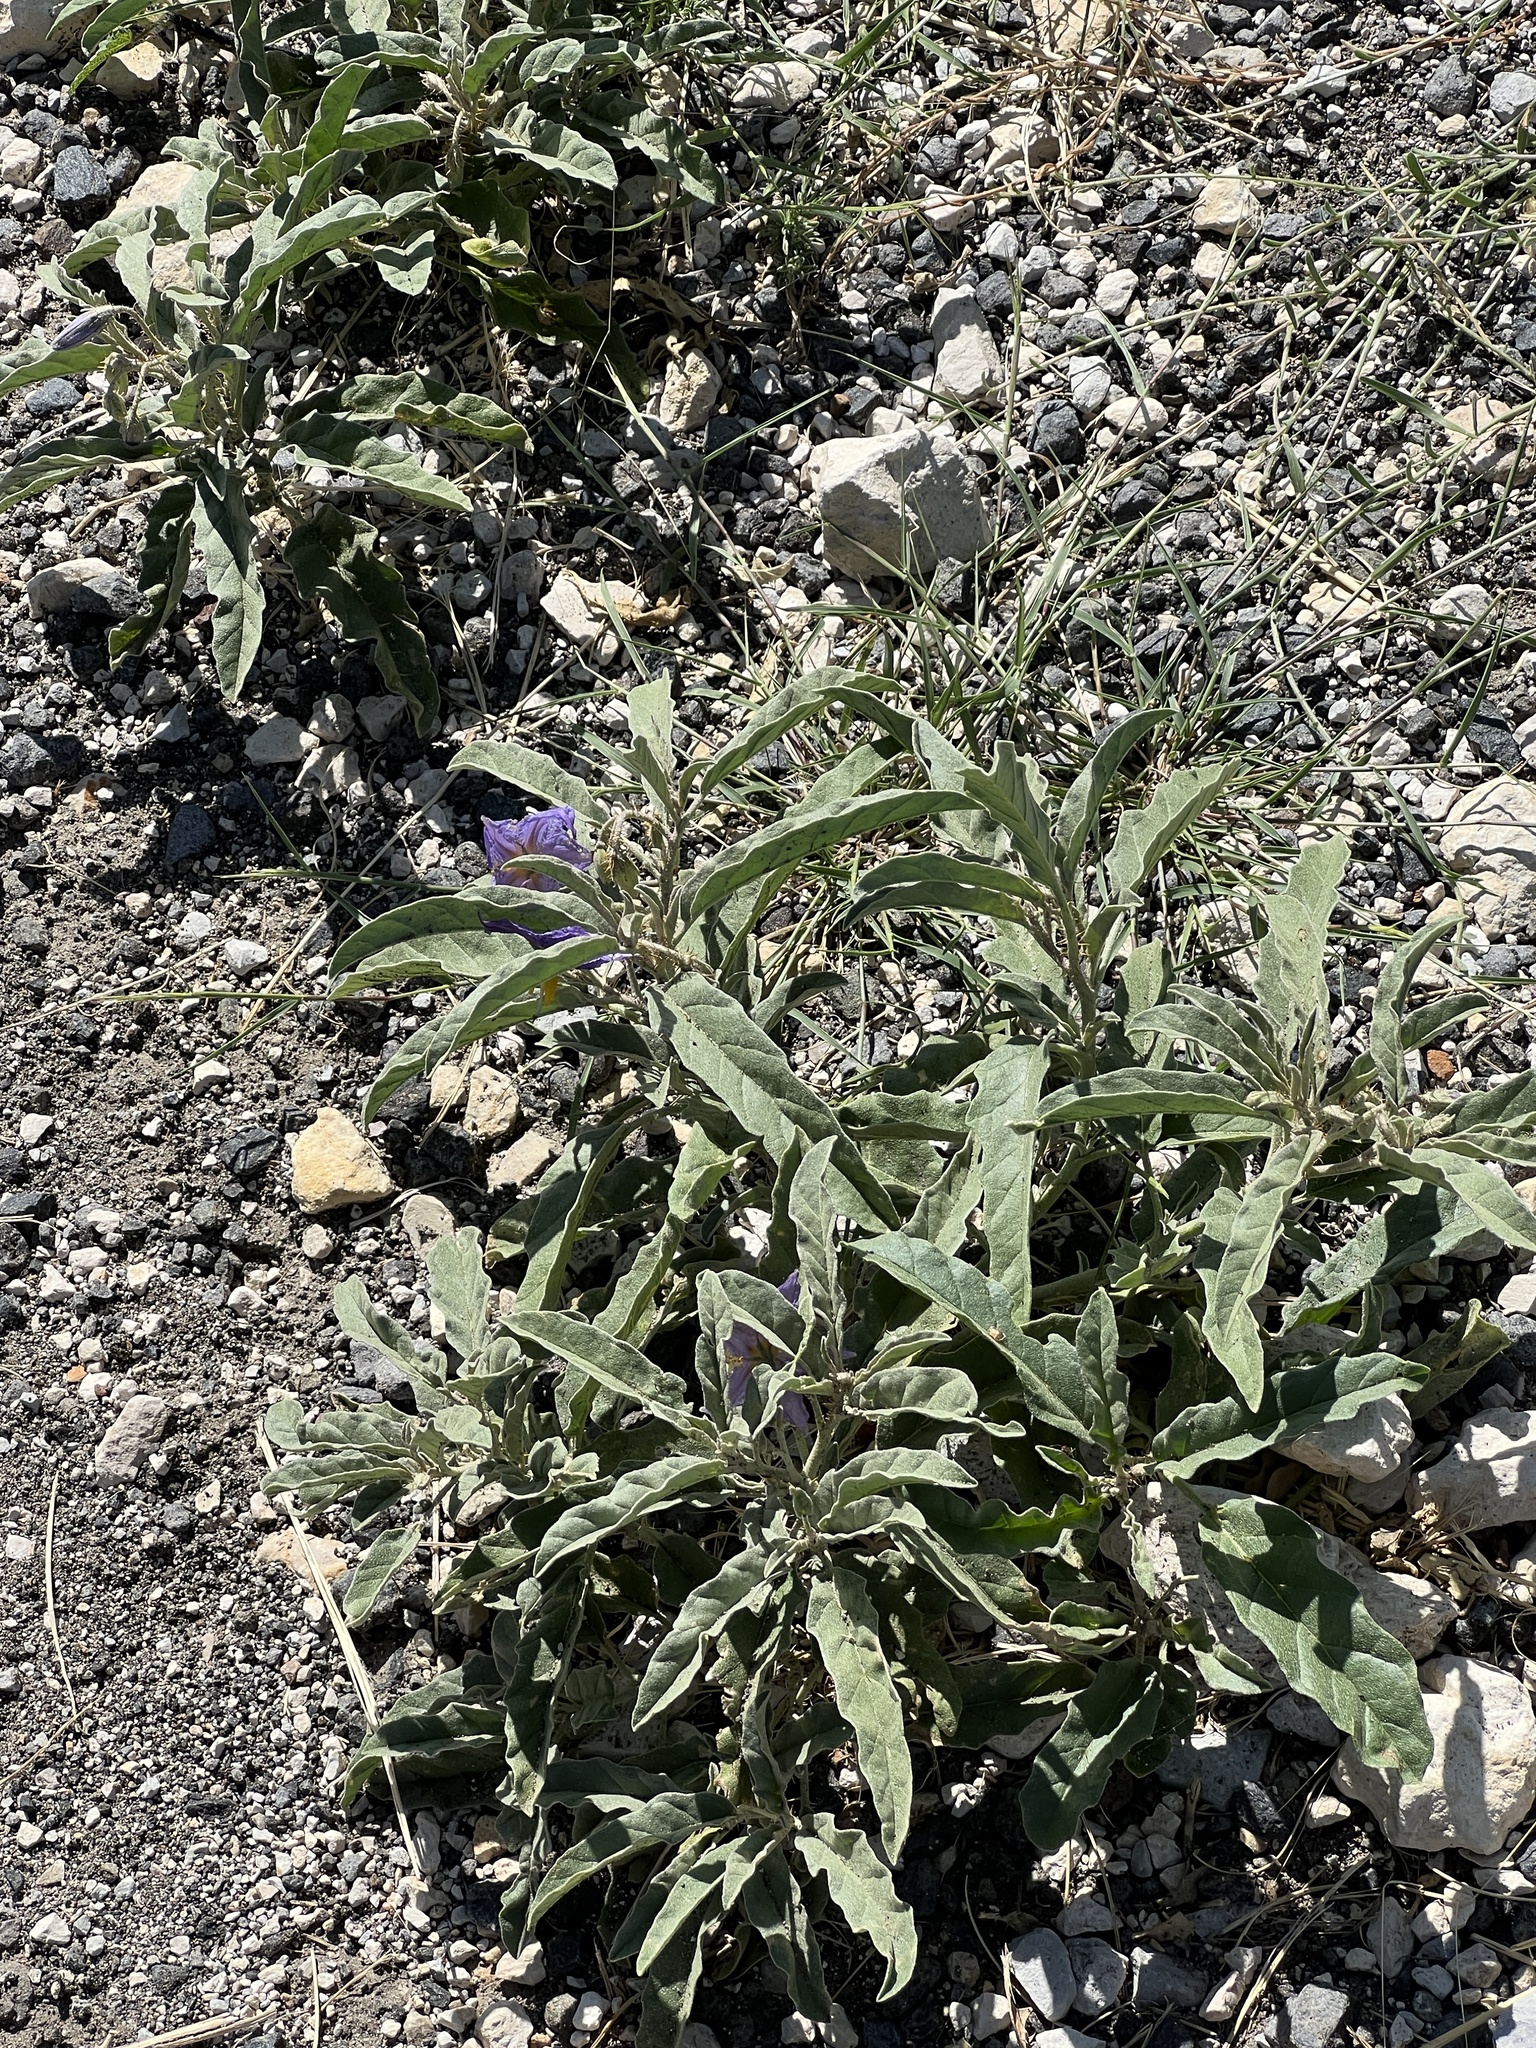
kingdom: Plantae
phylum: Tracheophyta
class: Magnoliopsida
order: Solanales
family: Solanaceae
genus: Solanum
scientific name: Solanum elaeagnifolium
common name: Silverleaf nightshade
